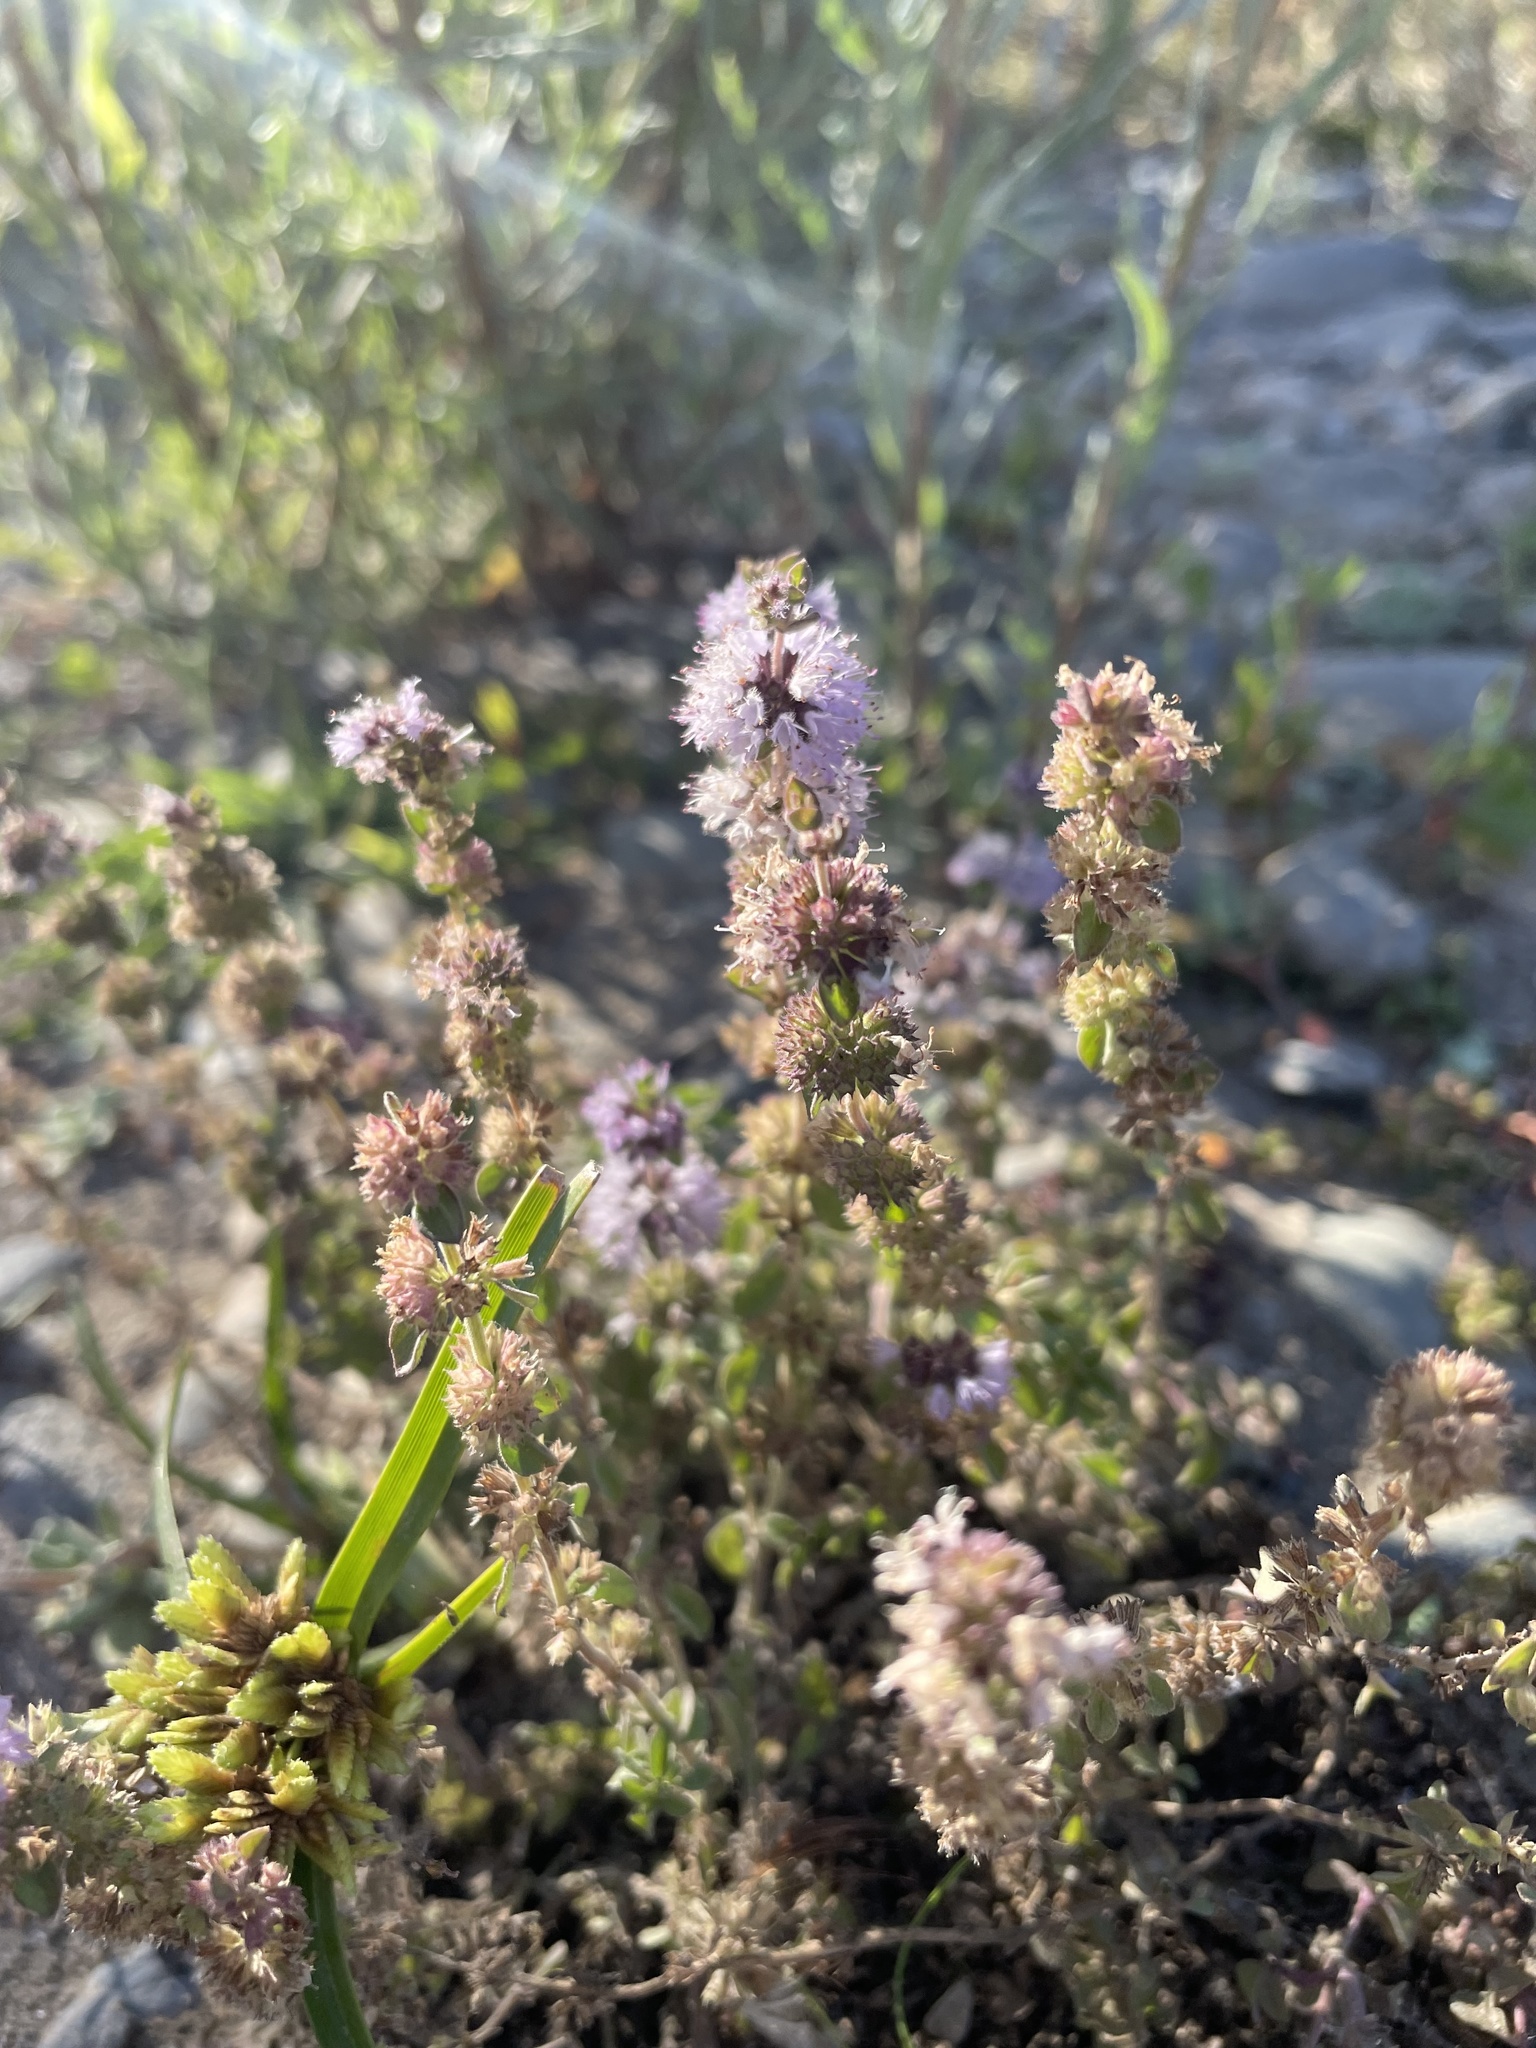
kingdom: Plantae
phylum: Tracheophyta
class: Magnoliopsida
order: Lamiales
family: Lamiaceae
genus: Mentha
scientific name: Mentha pulegium
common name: Pennyroyal
